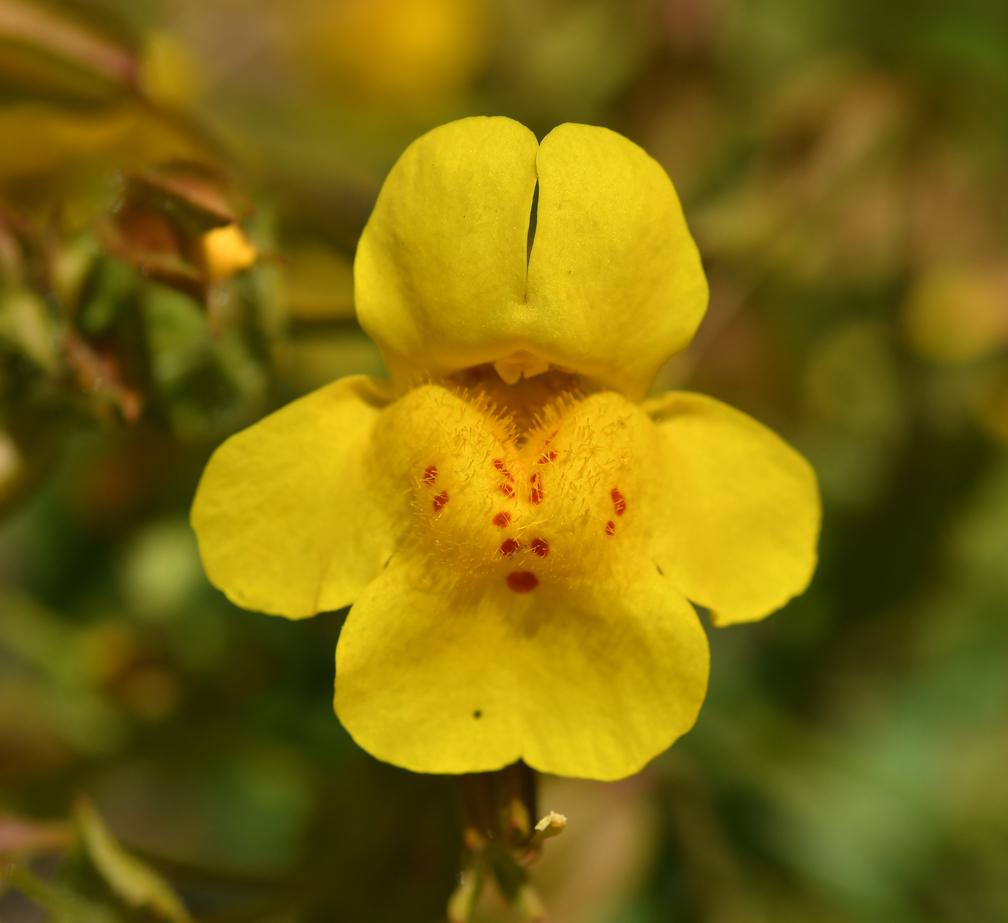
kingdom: Plantae
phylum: Tracheophyta
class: Magnoliopsida
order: Lamiales
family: Phrymaceae
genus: Erythranthe
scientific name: Erythranthe guttata
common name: Monkeyflower
